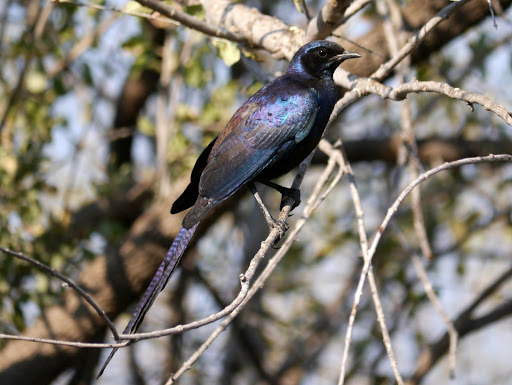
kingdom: Animalia
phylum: Chordata
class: Aves
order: Passeriformes
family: Sturnidae
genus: Lamprotornis
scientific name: Lamprotornis mevesii
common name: Meves's starling
